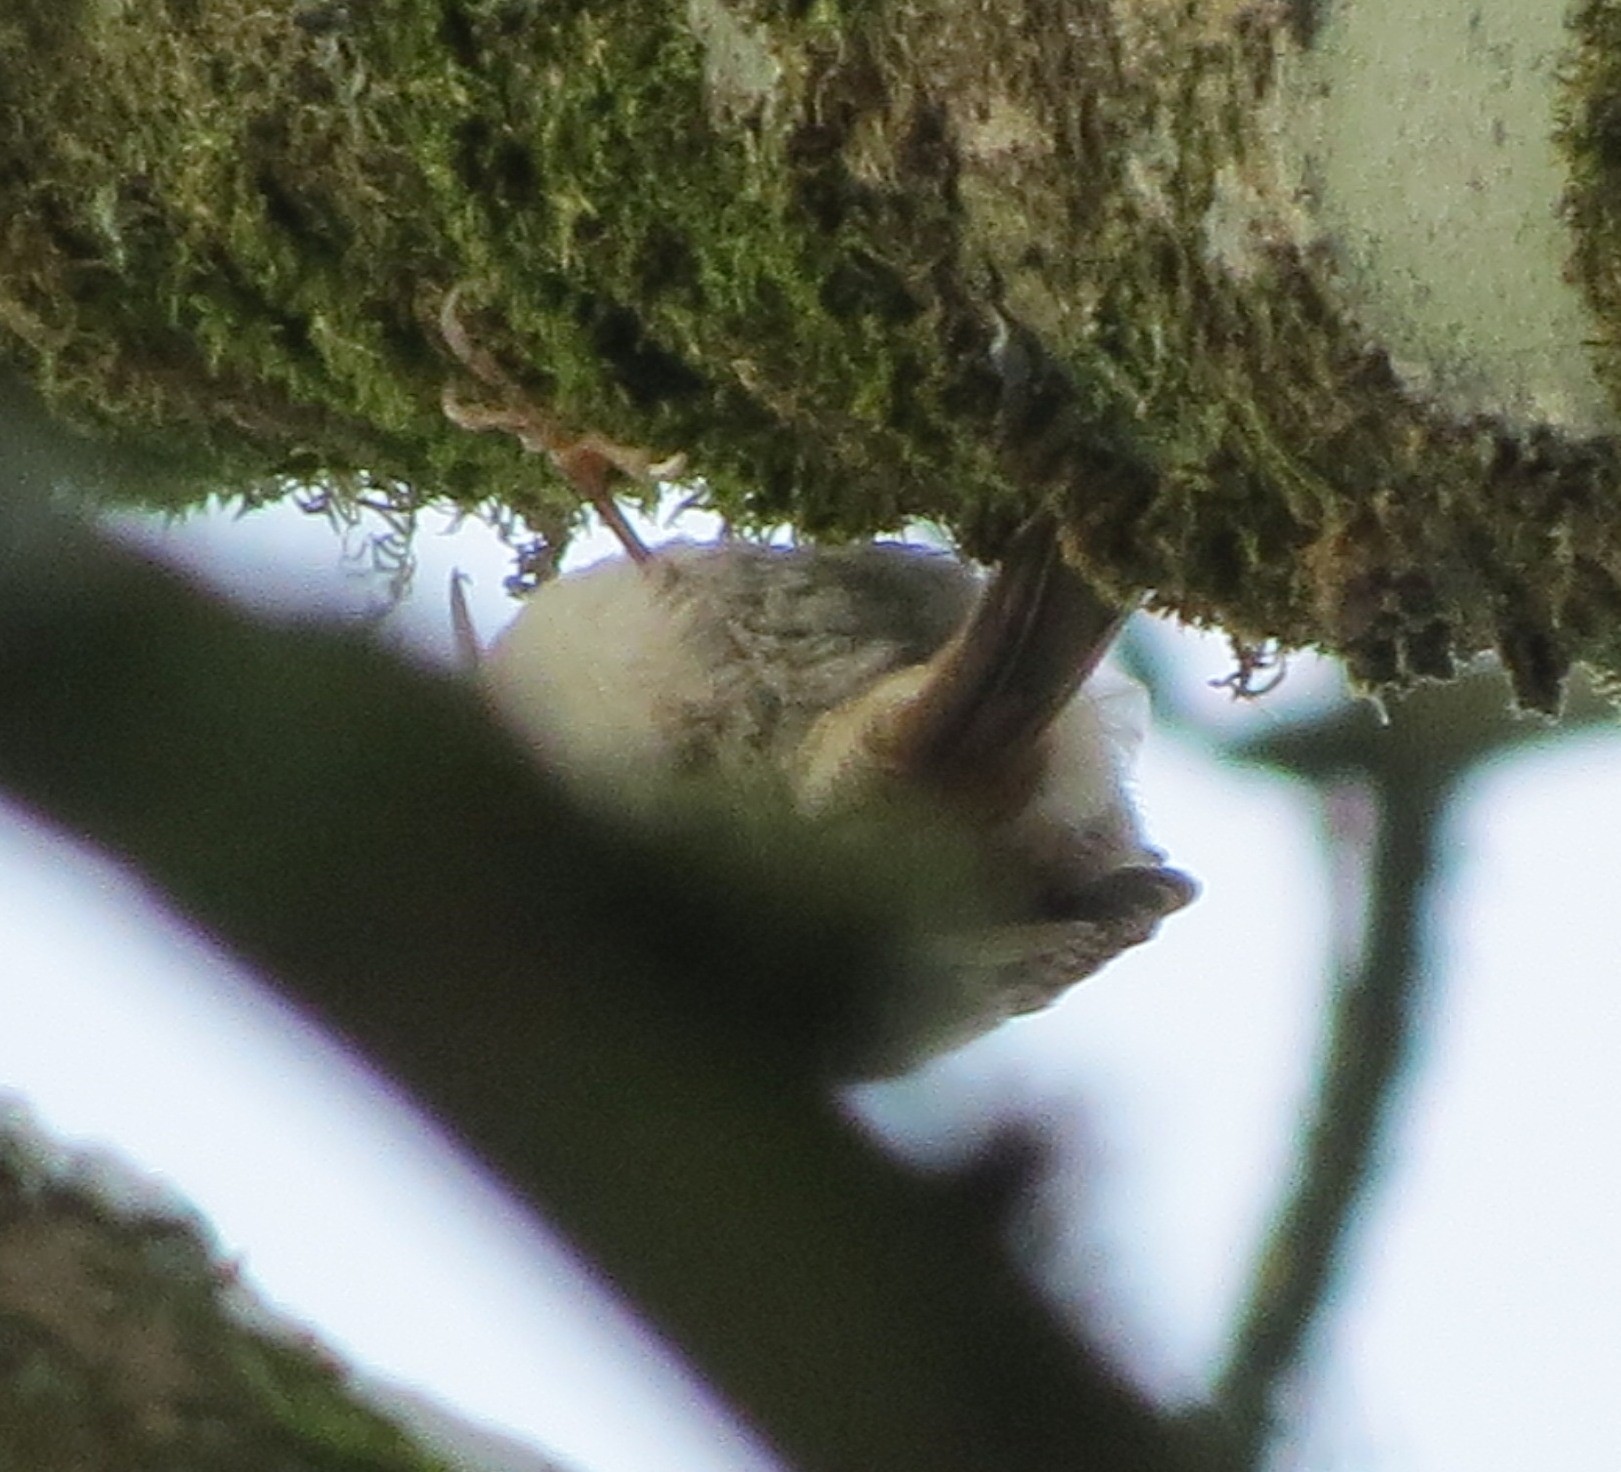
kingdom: Animalia
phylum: Chordata
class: Aves
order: Passeriformes
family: Certhiidae
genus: Certhia
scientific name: Certhia familiaris
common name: Eurasian treecreeper
